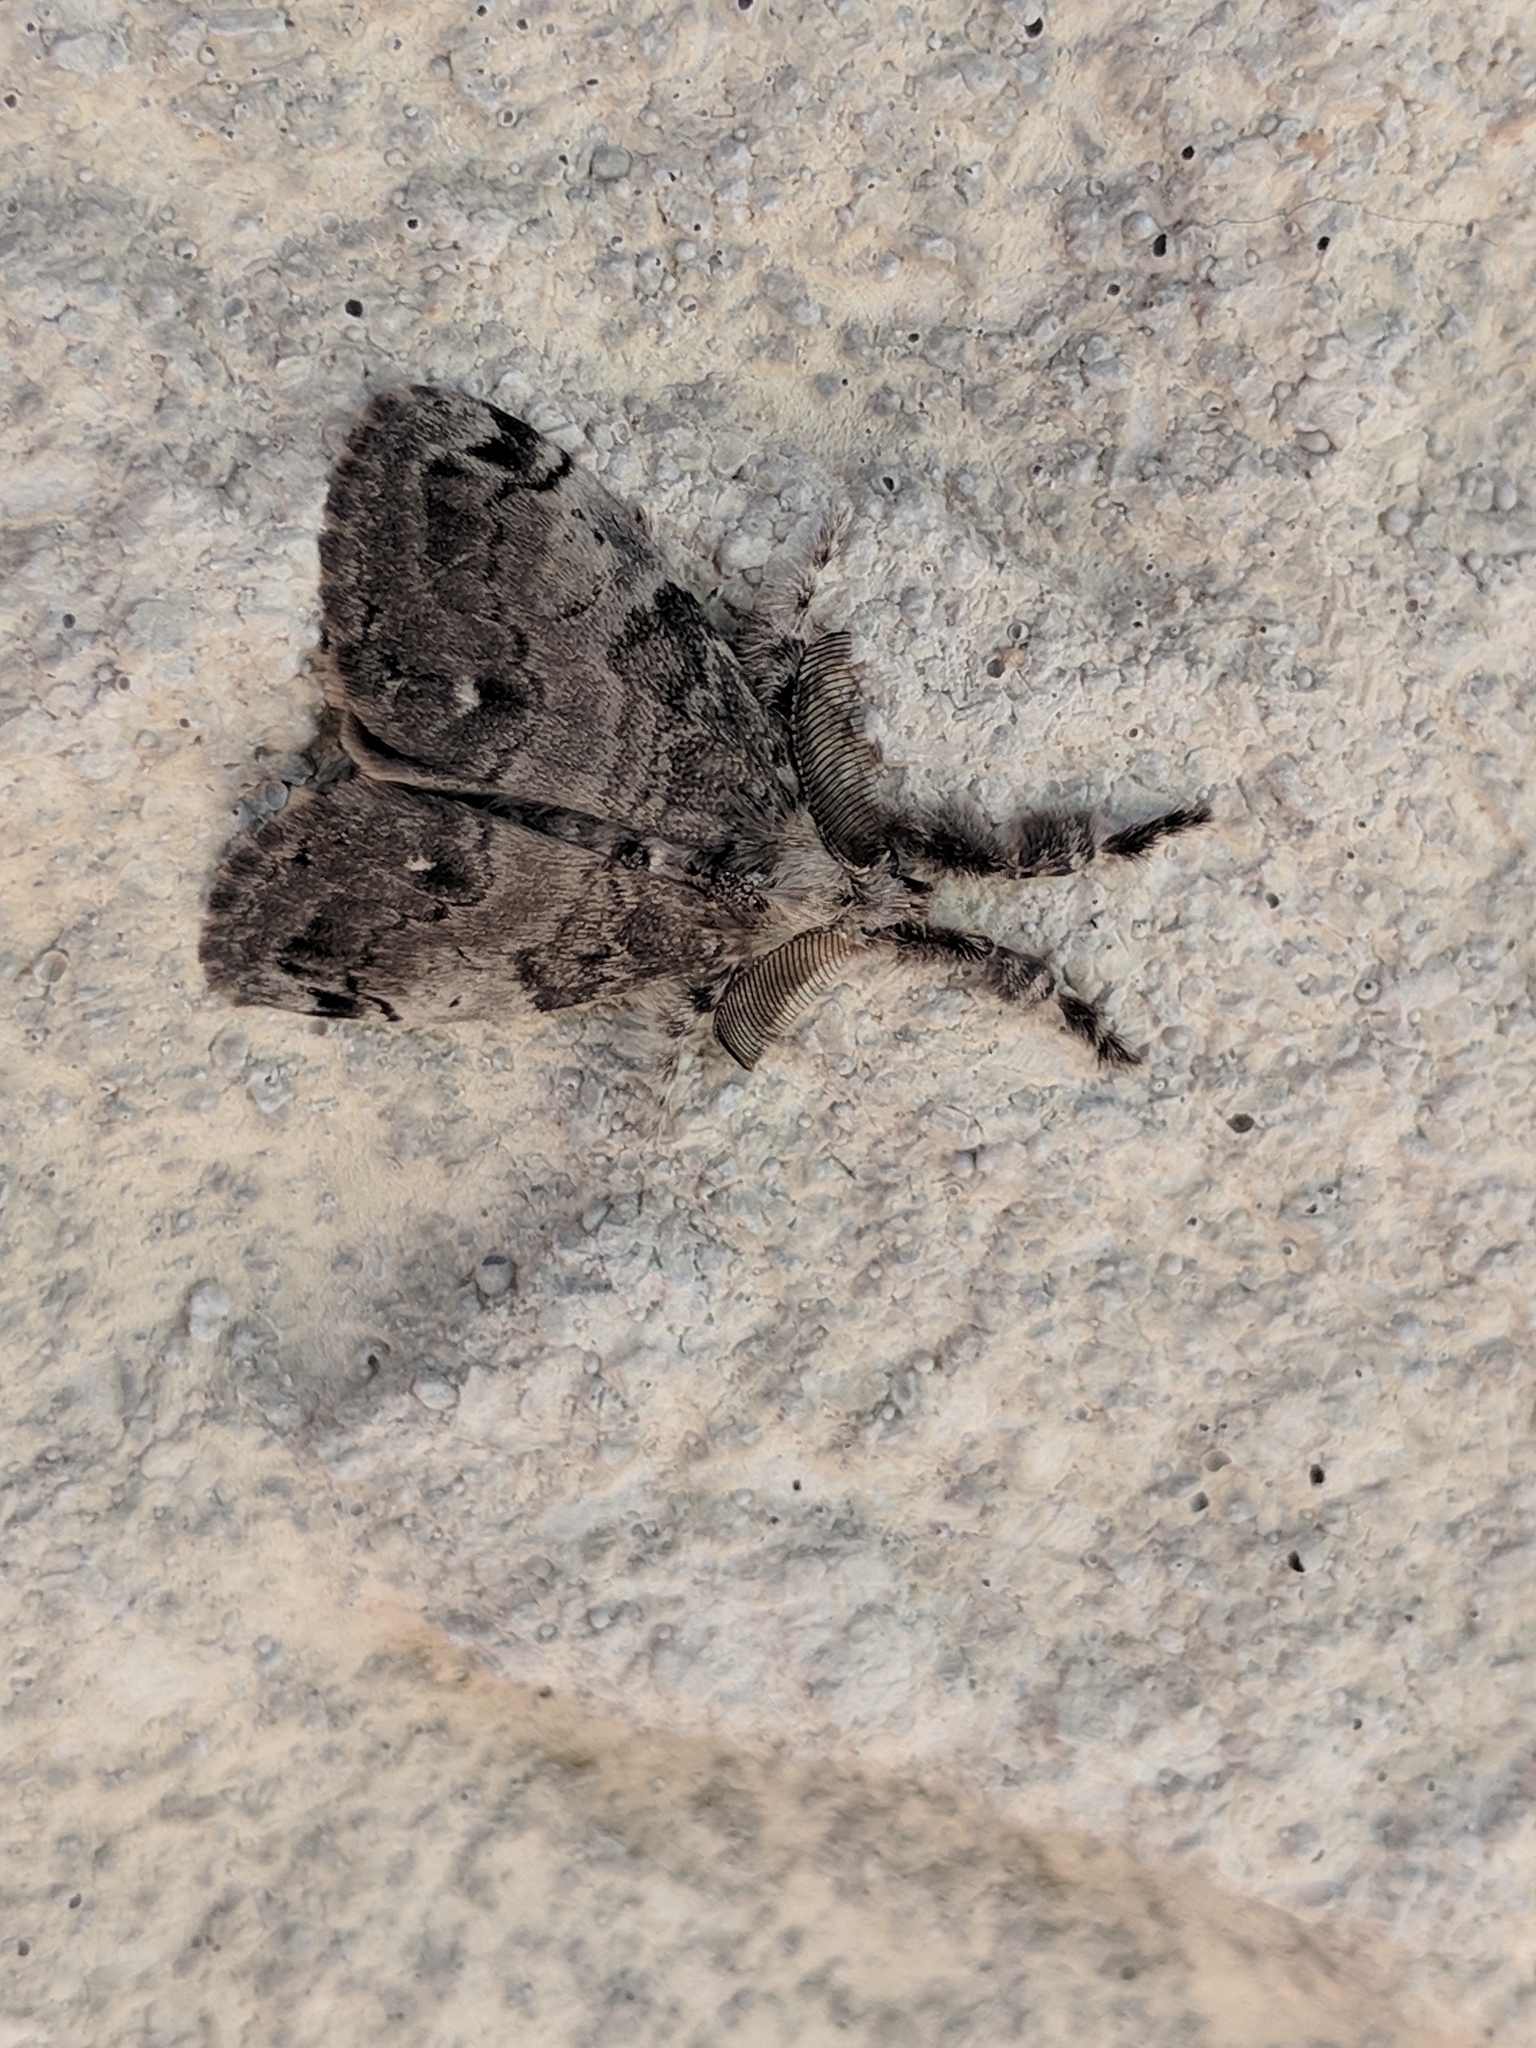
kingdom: Animalia
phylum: Arthropoda
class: Insecta
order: Lepidoptera
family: Erebidae
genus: Orgyia
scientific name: Orgyia leucostigma
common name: White-marked tussock moth
